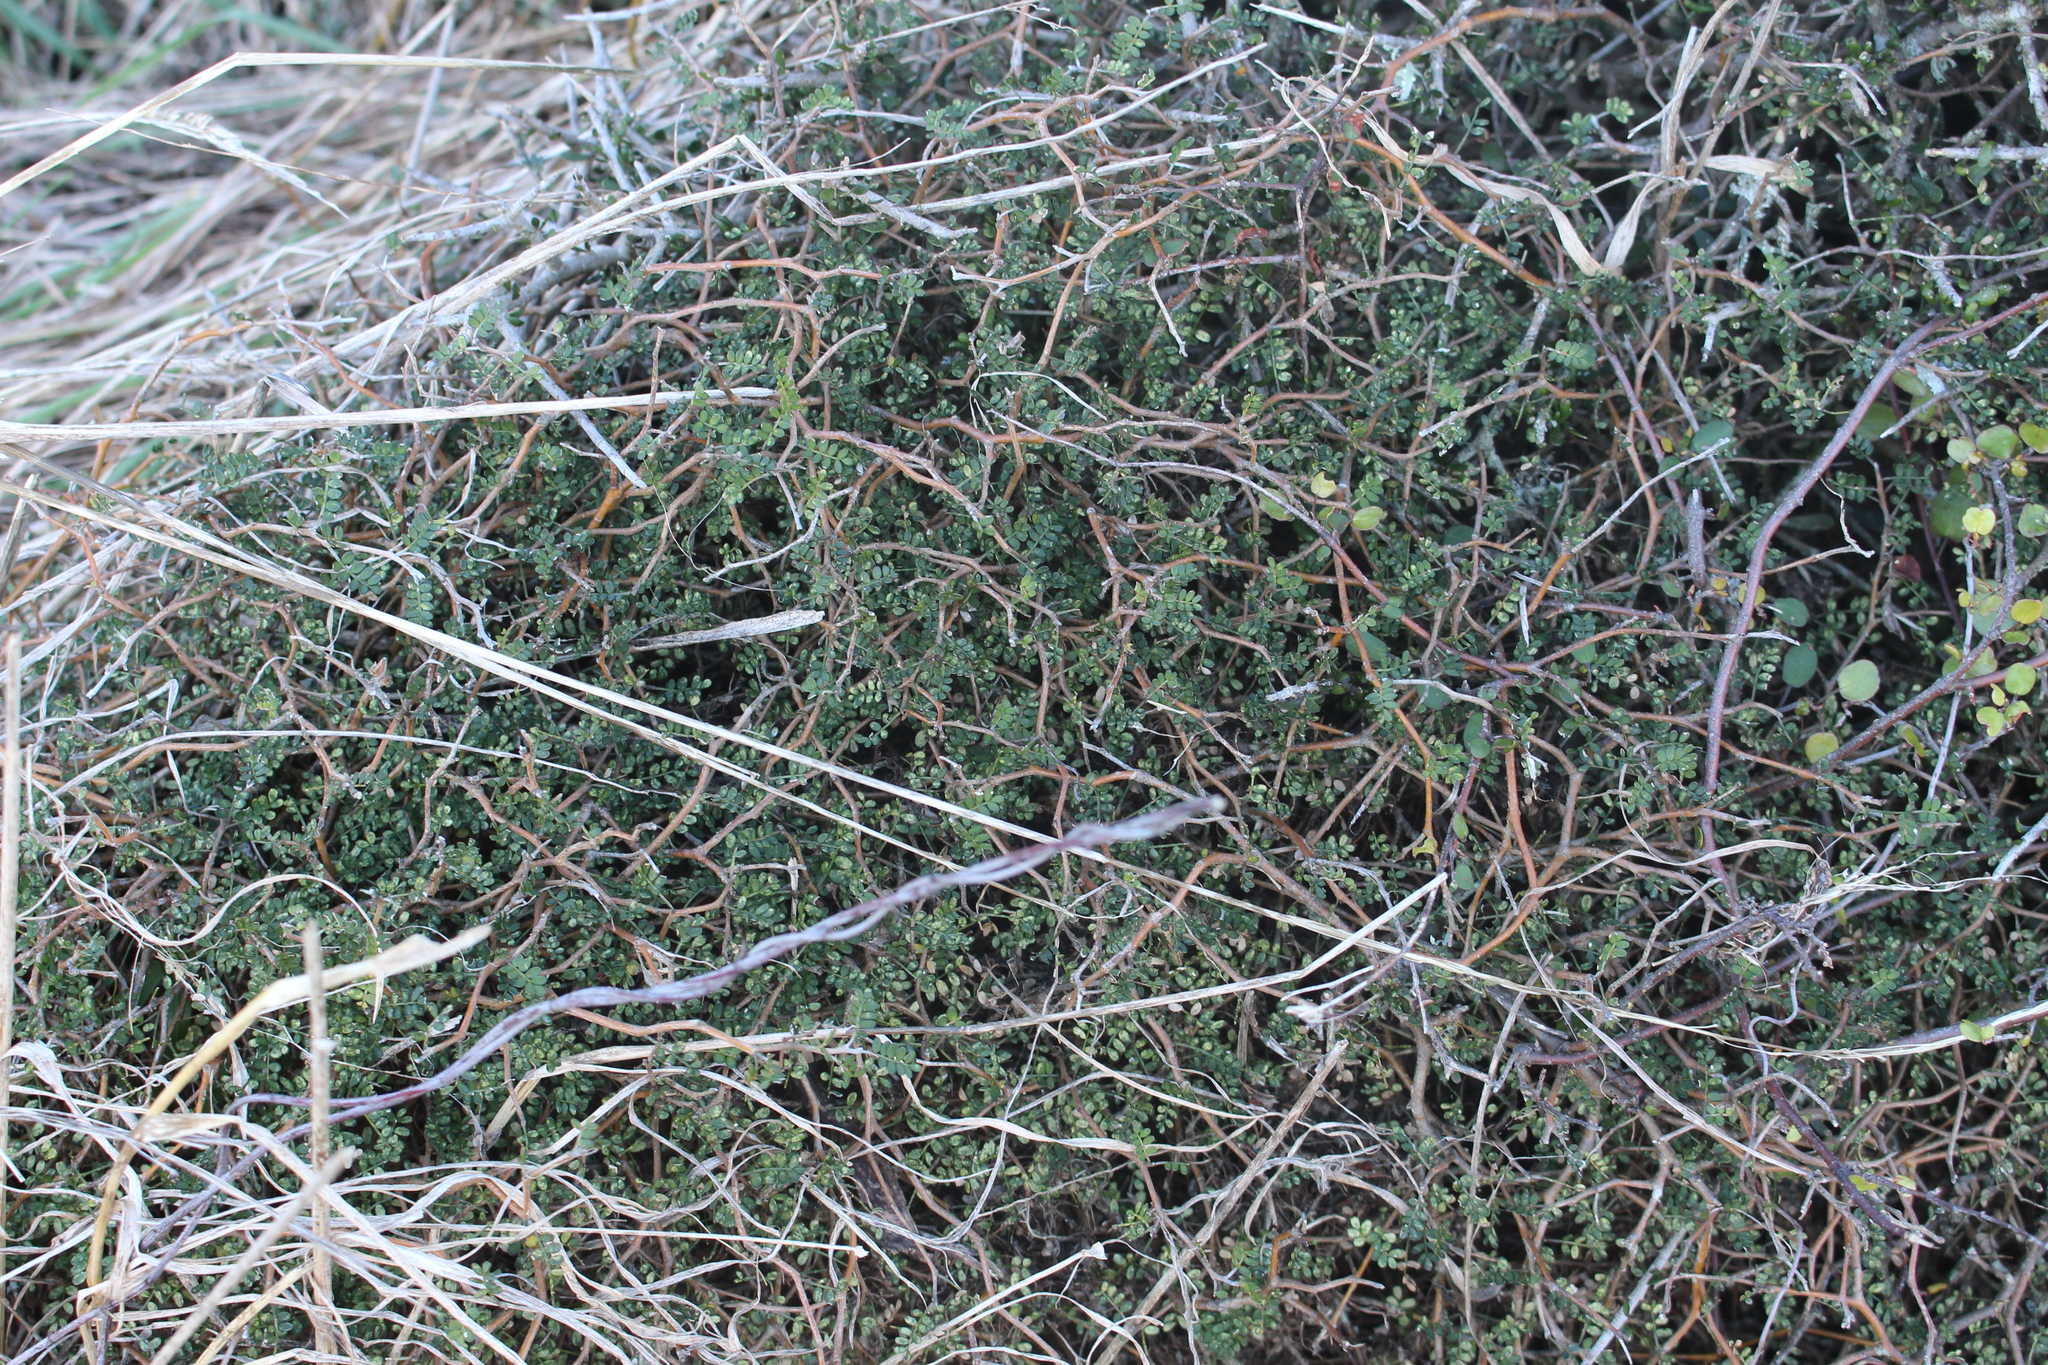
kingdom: Plantae
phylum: Tracheophyta
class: Magnoliopsida
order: Fabales
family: Fabaceae
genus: Sophora
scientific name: Sophora prostrata
